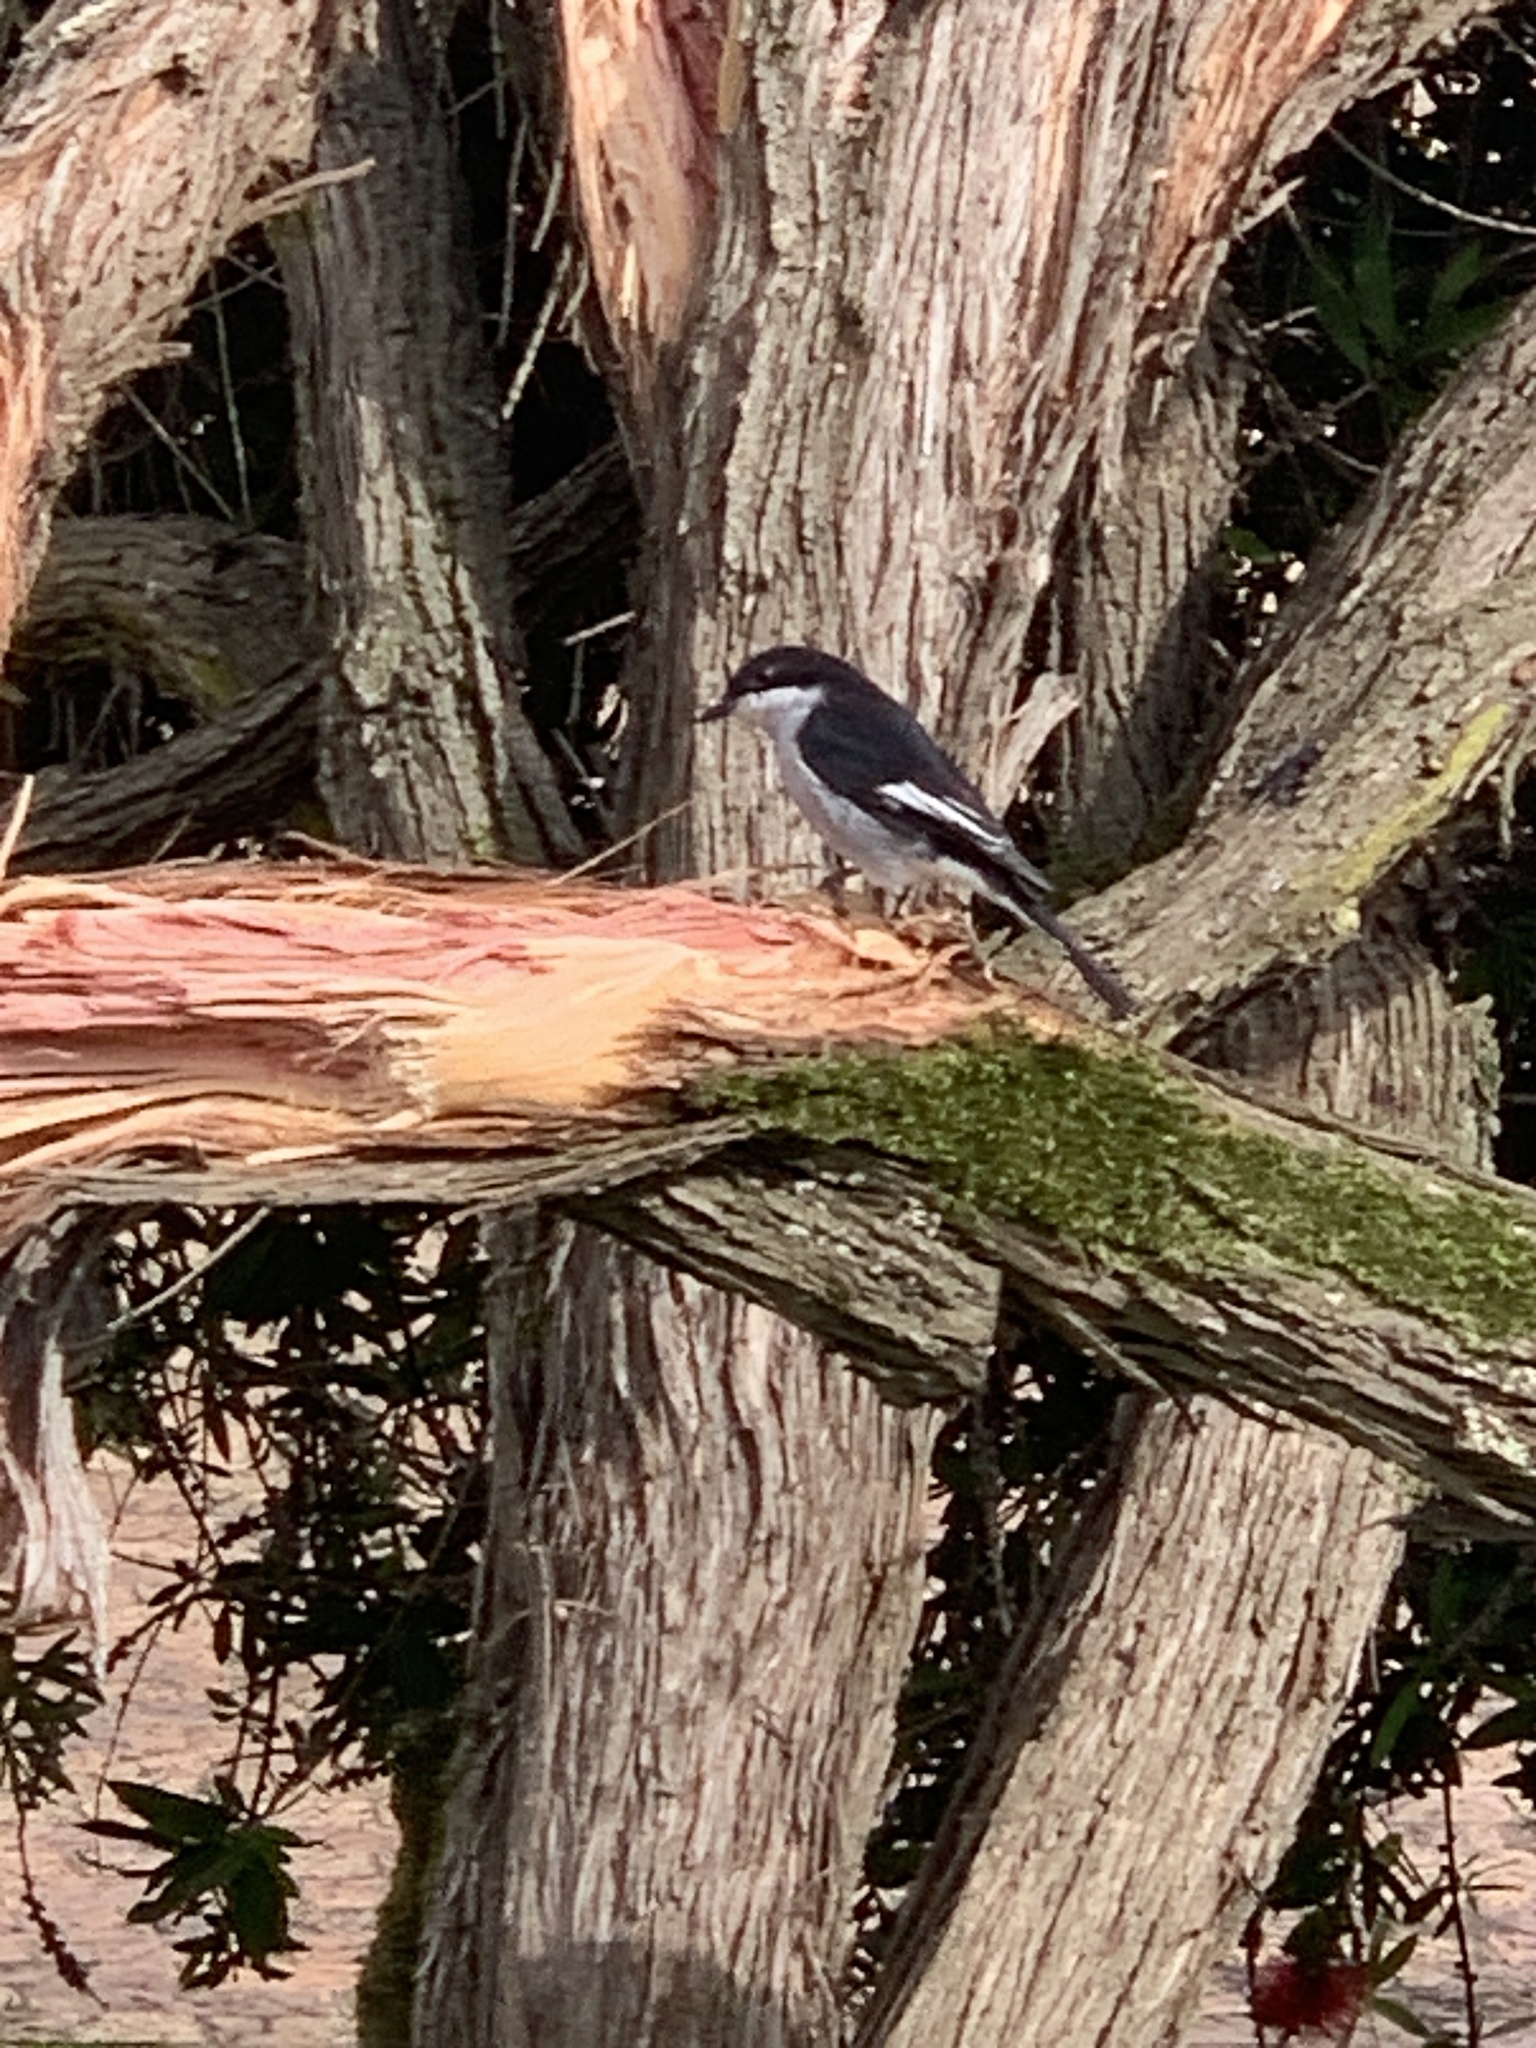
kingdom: Animalia
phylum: Chordata
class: Aves
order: Passeriformes
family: Muscicapidae
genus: Sigelus
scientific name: Sigelus silens
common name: Fiscal flycatcher
